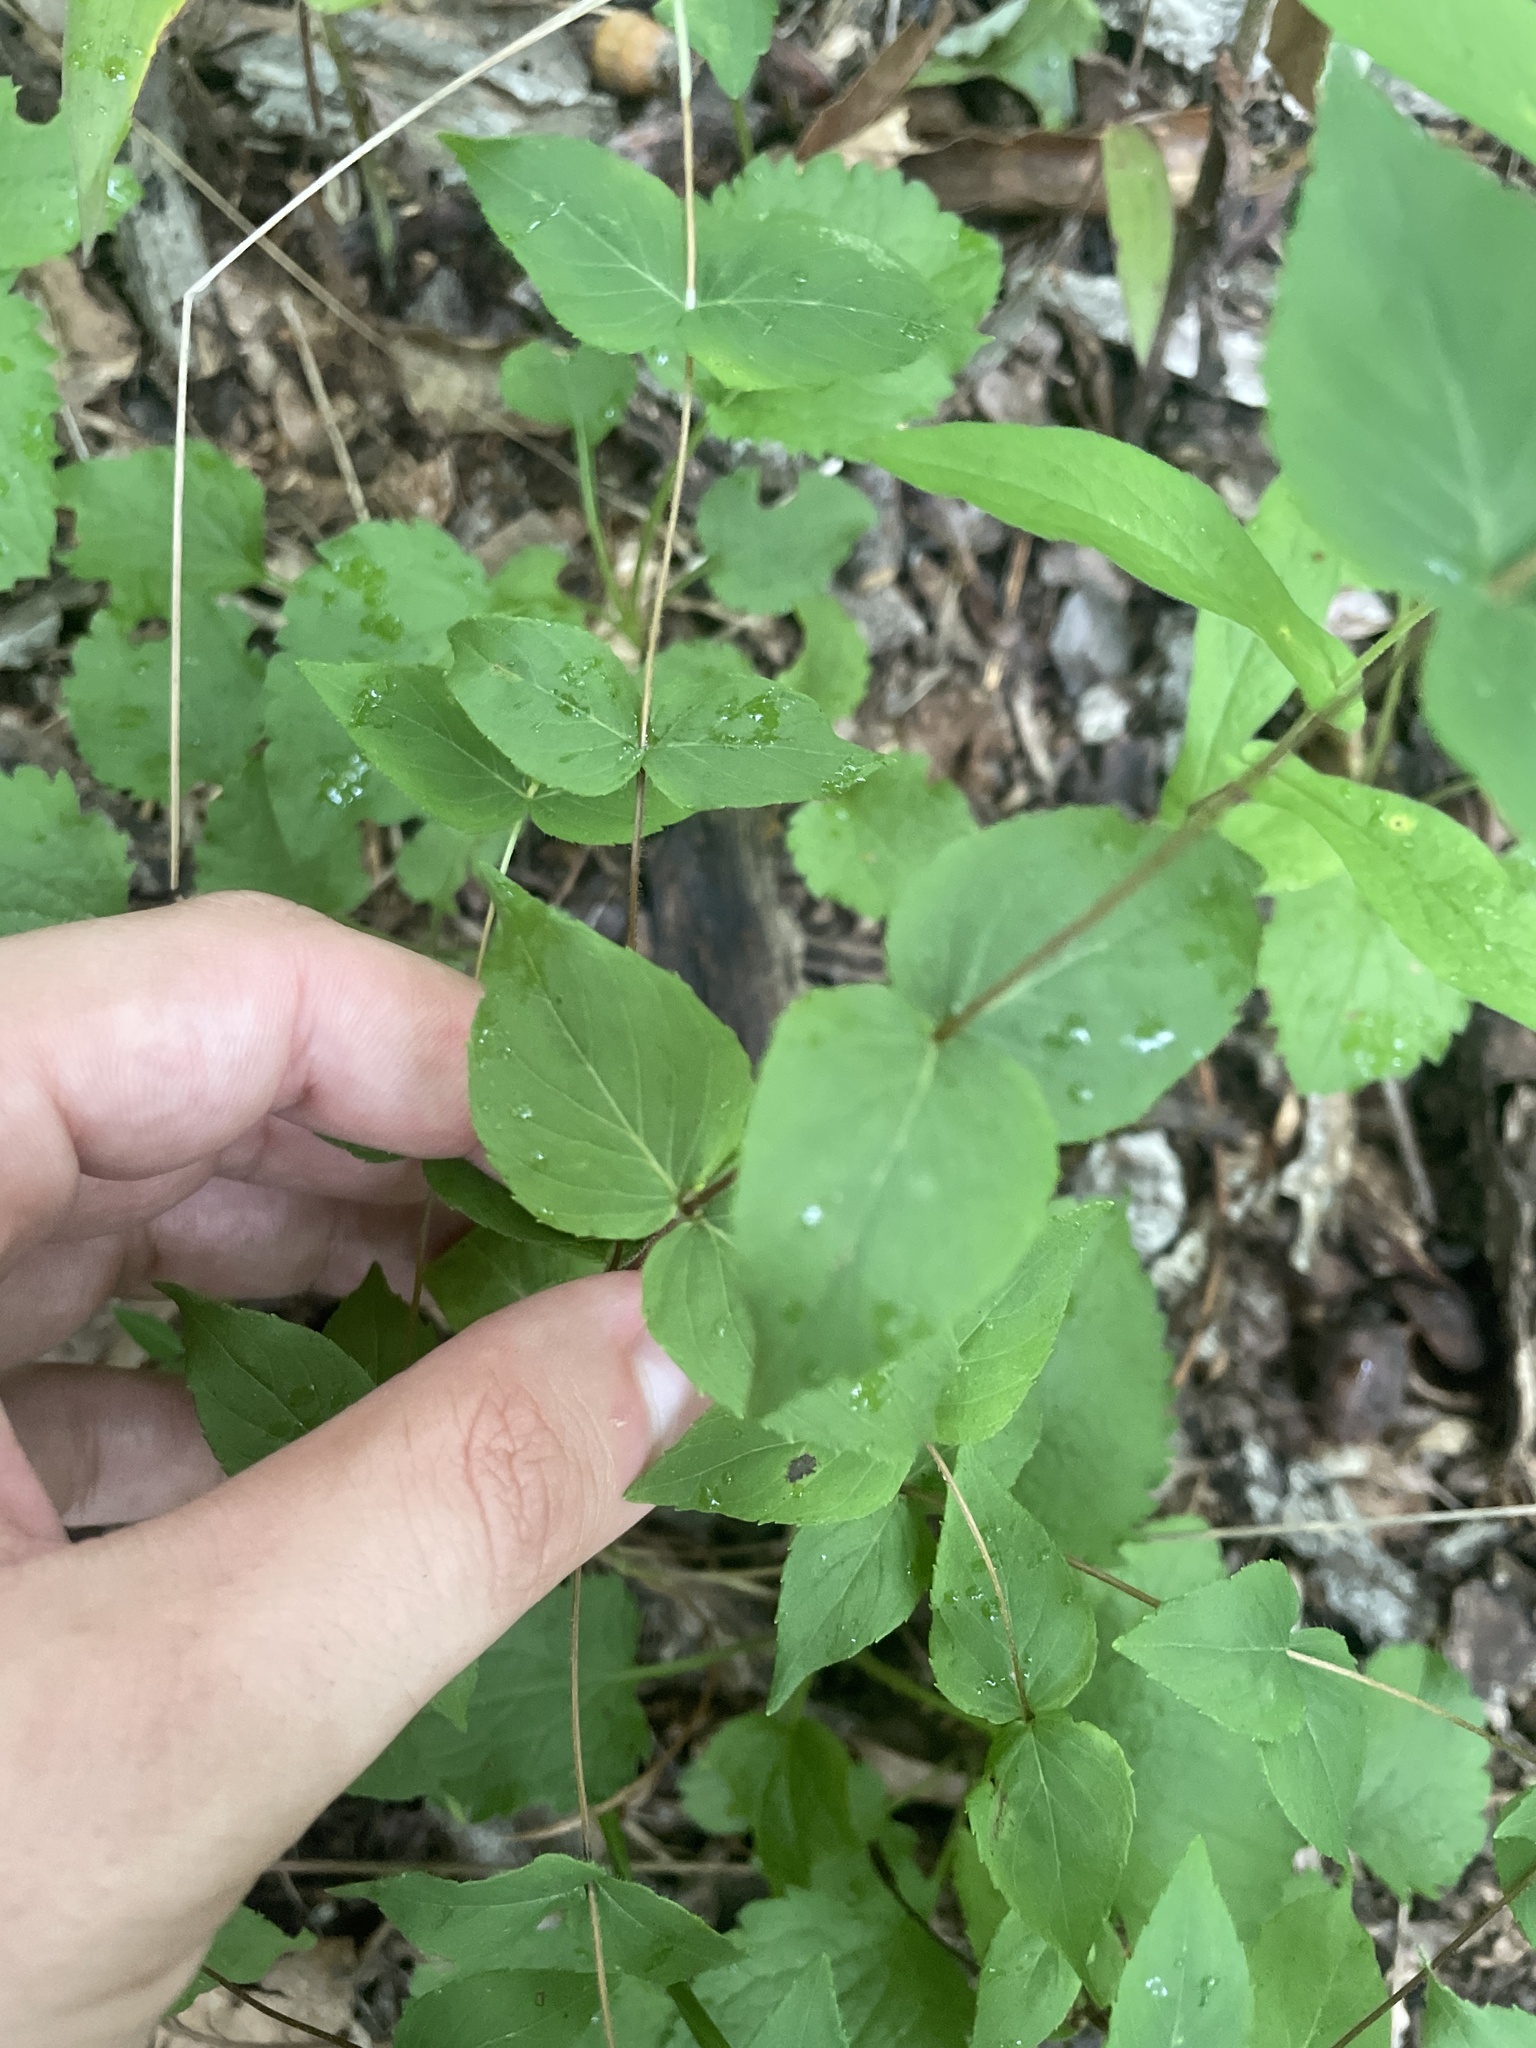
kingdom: Plantae
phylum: Tracheophyta
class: Magnoliopsida
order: Lamiales
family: Lamiaceae
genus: Cunila
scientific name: Cunila origanoides
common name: American dittany
